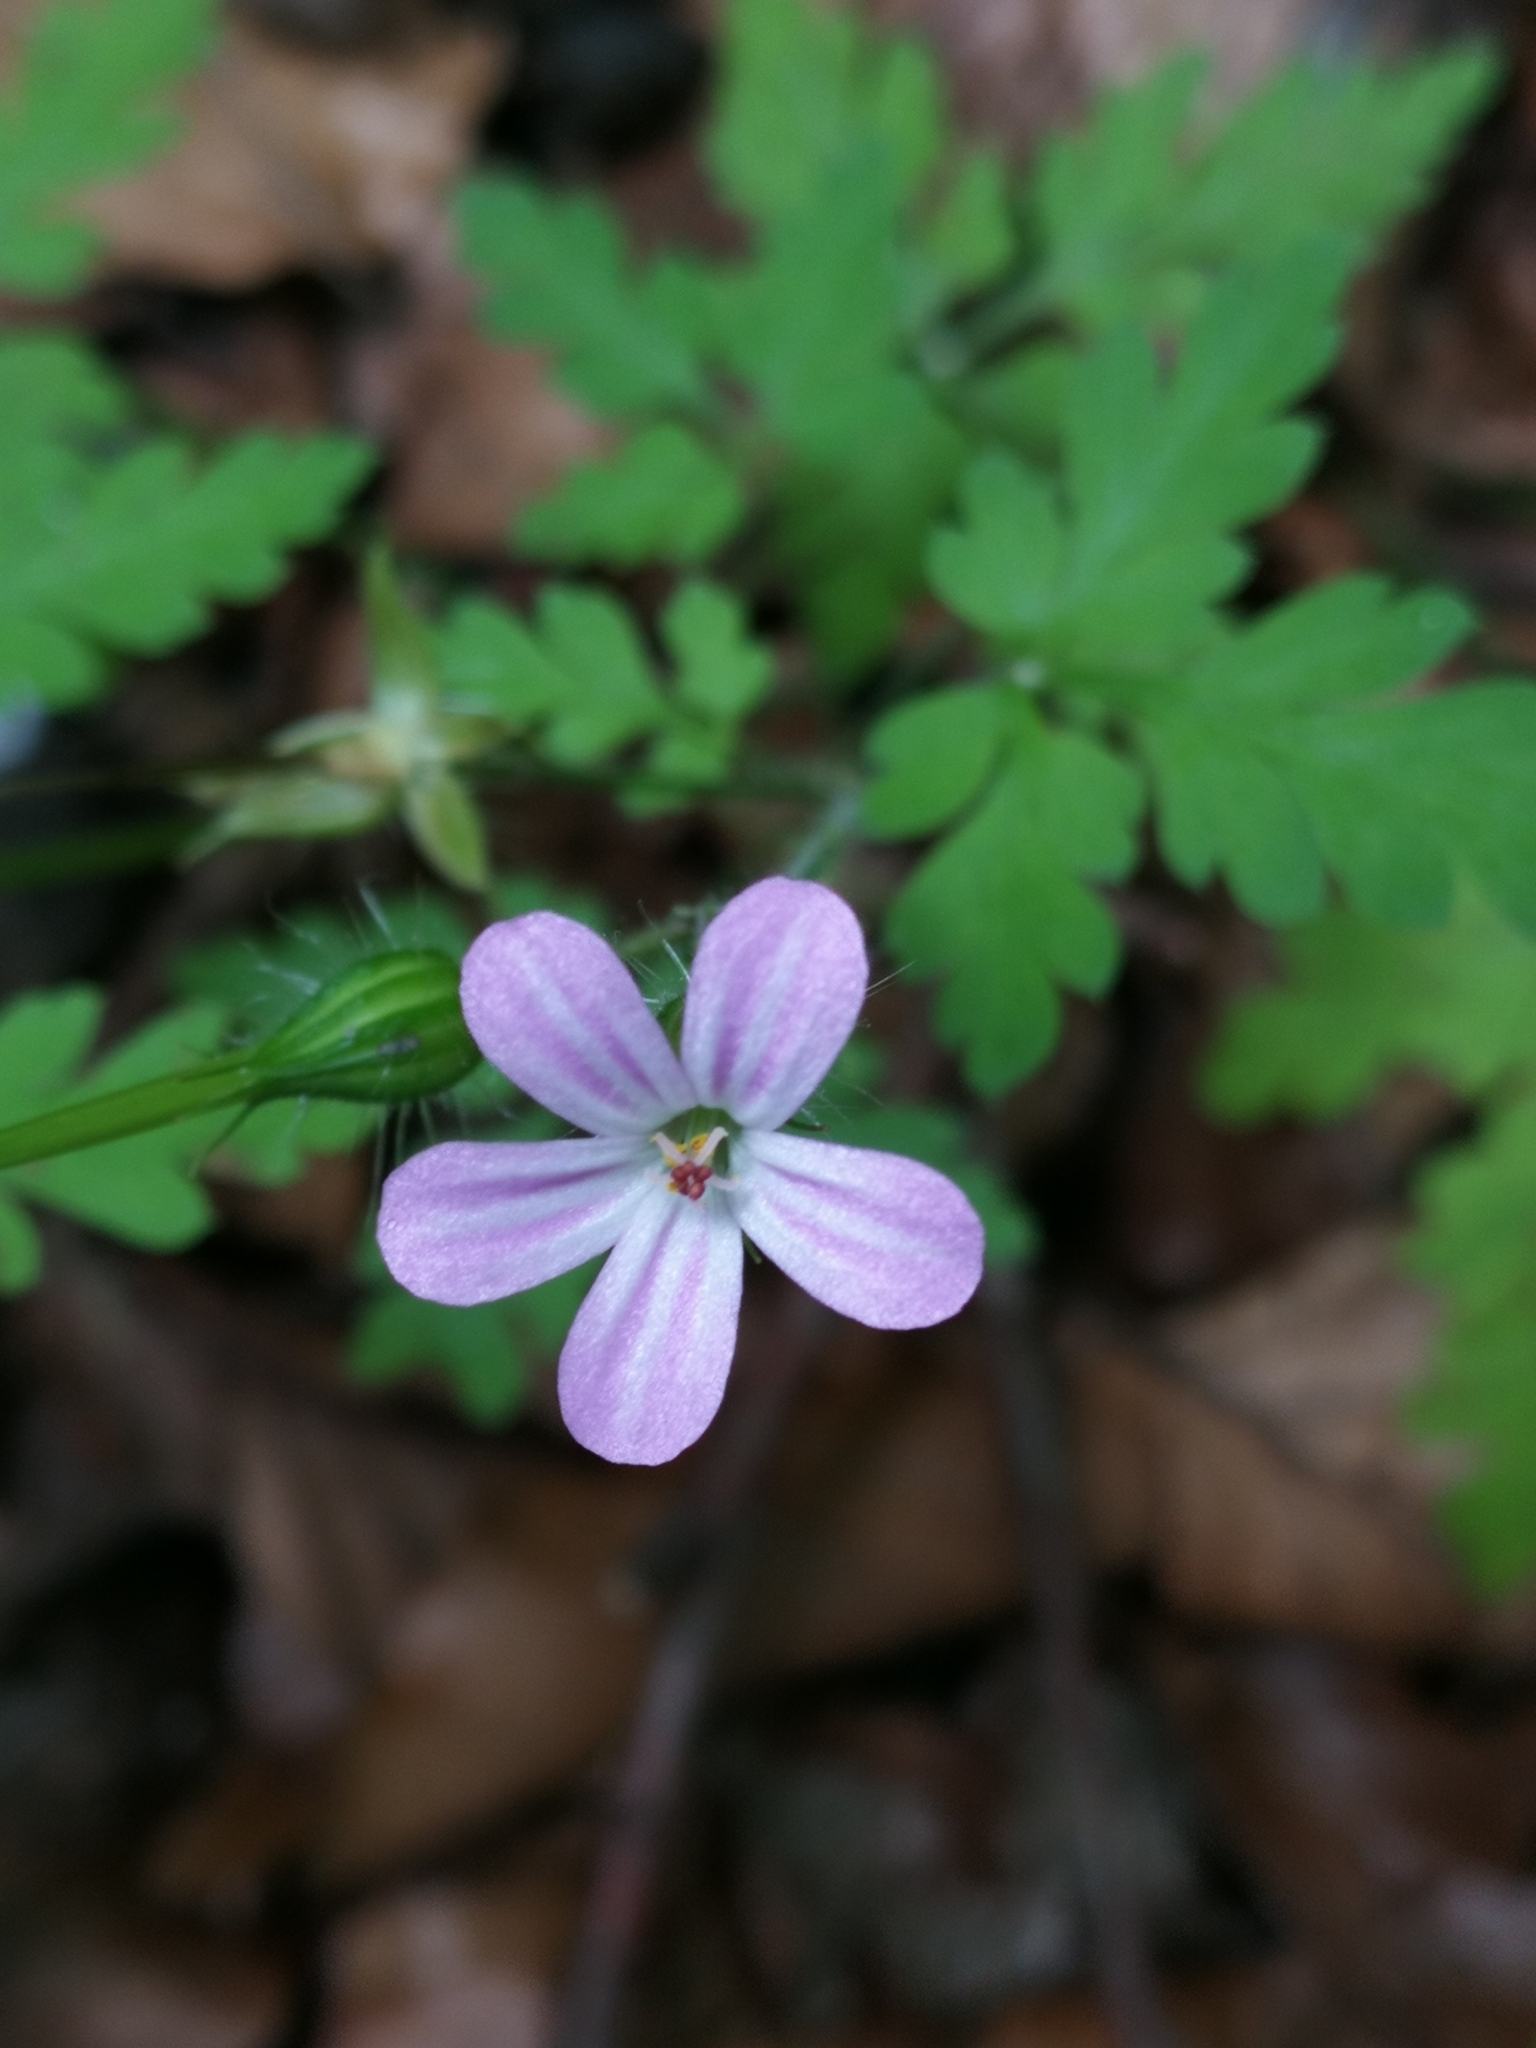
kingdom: Plantae
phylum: Tracheophyta
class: Magnoliopsida
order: Geraniales
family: Geraniaceae
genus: Geranium
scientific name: Geranium robertianum
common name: Herb-robert
